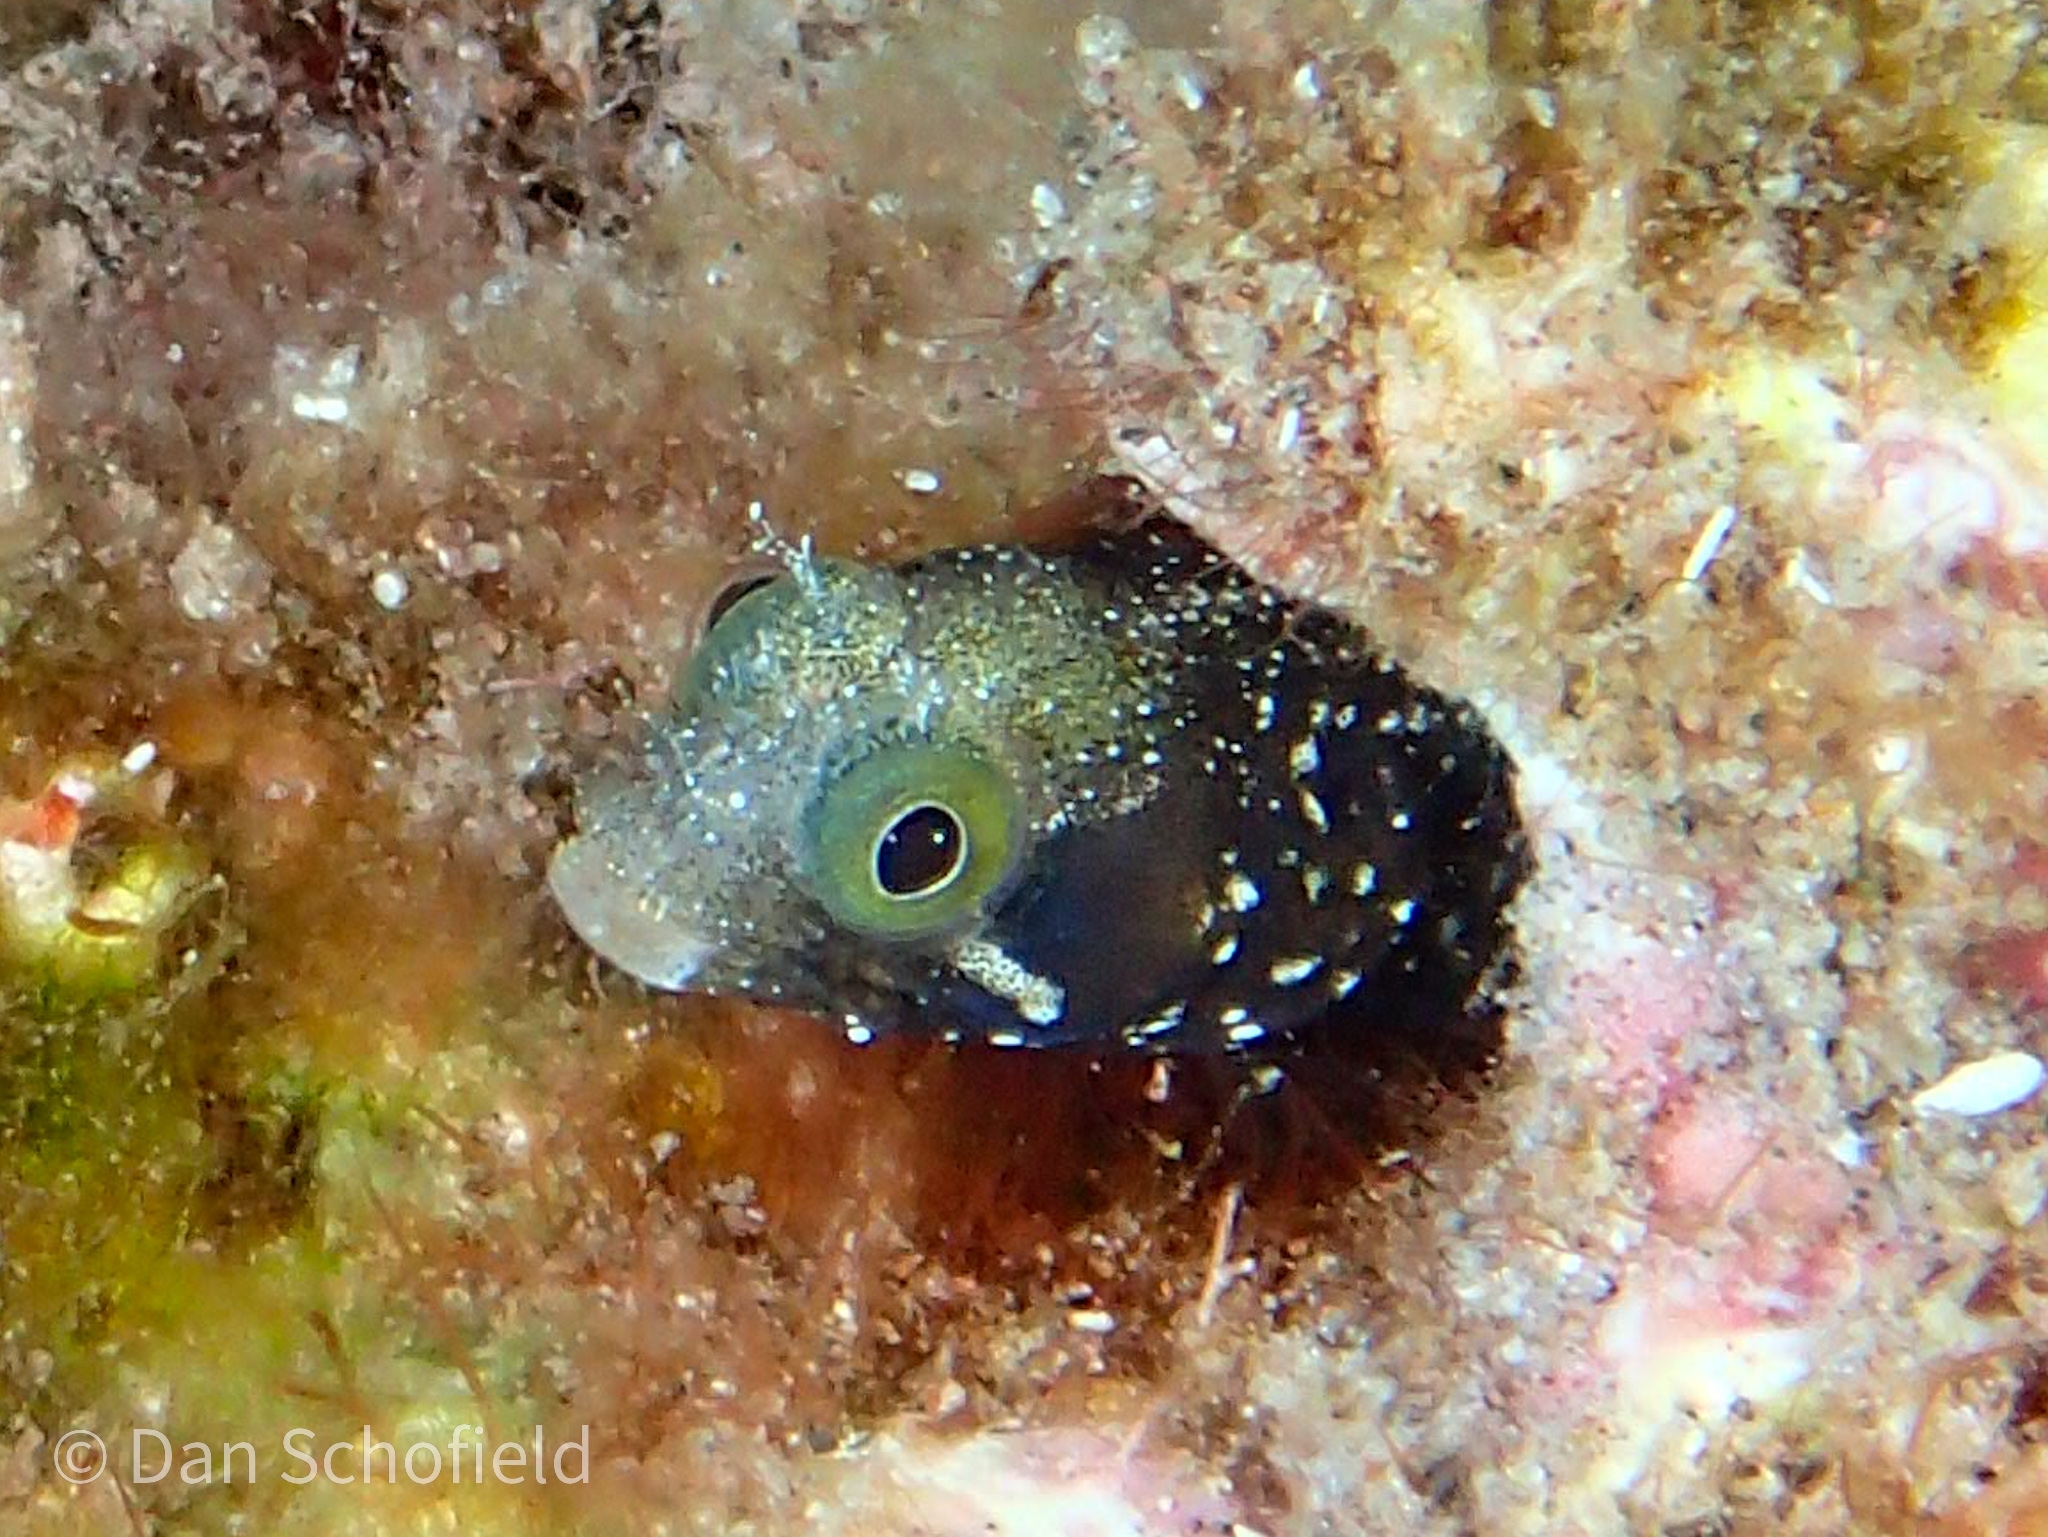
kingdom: Animalia
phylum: Chordata
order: Perciformes
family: Chaenopsidae
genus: Acanthemblemaria
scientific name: Acanthemblemaria spinosa
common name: Spinyhead blenny
